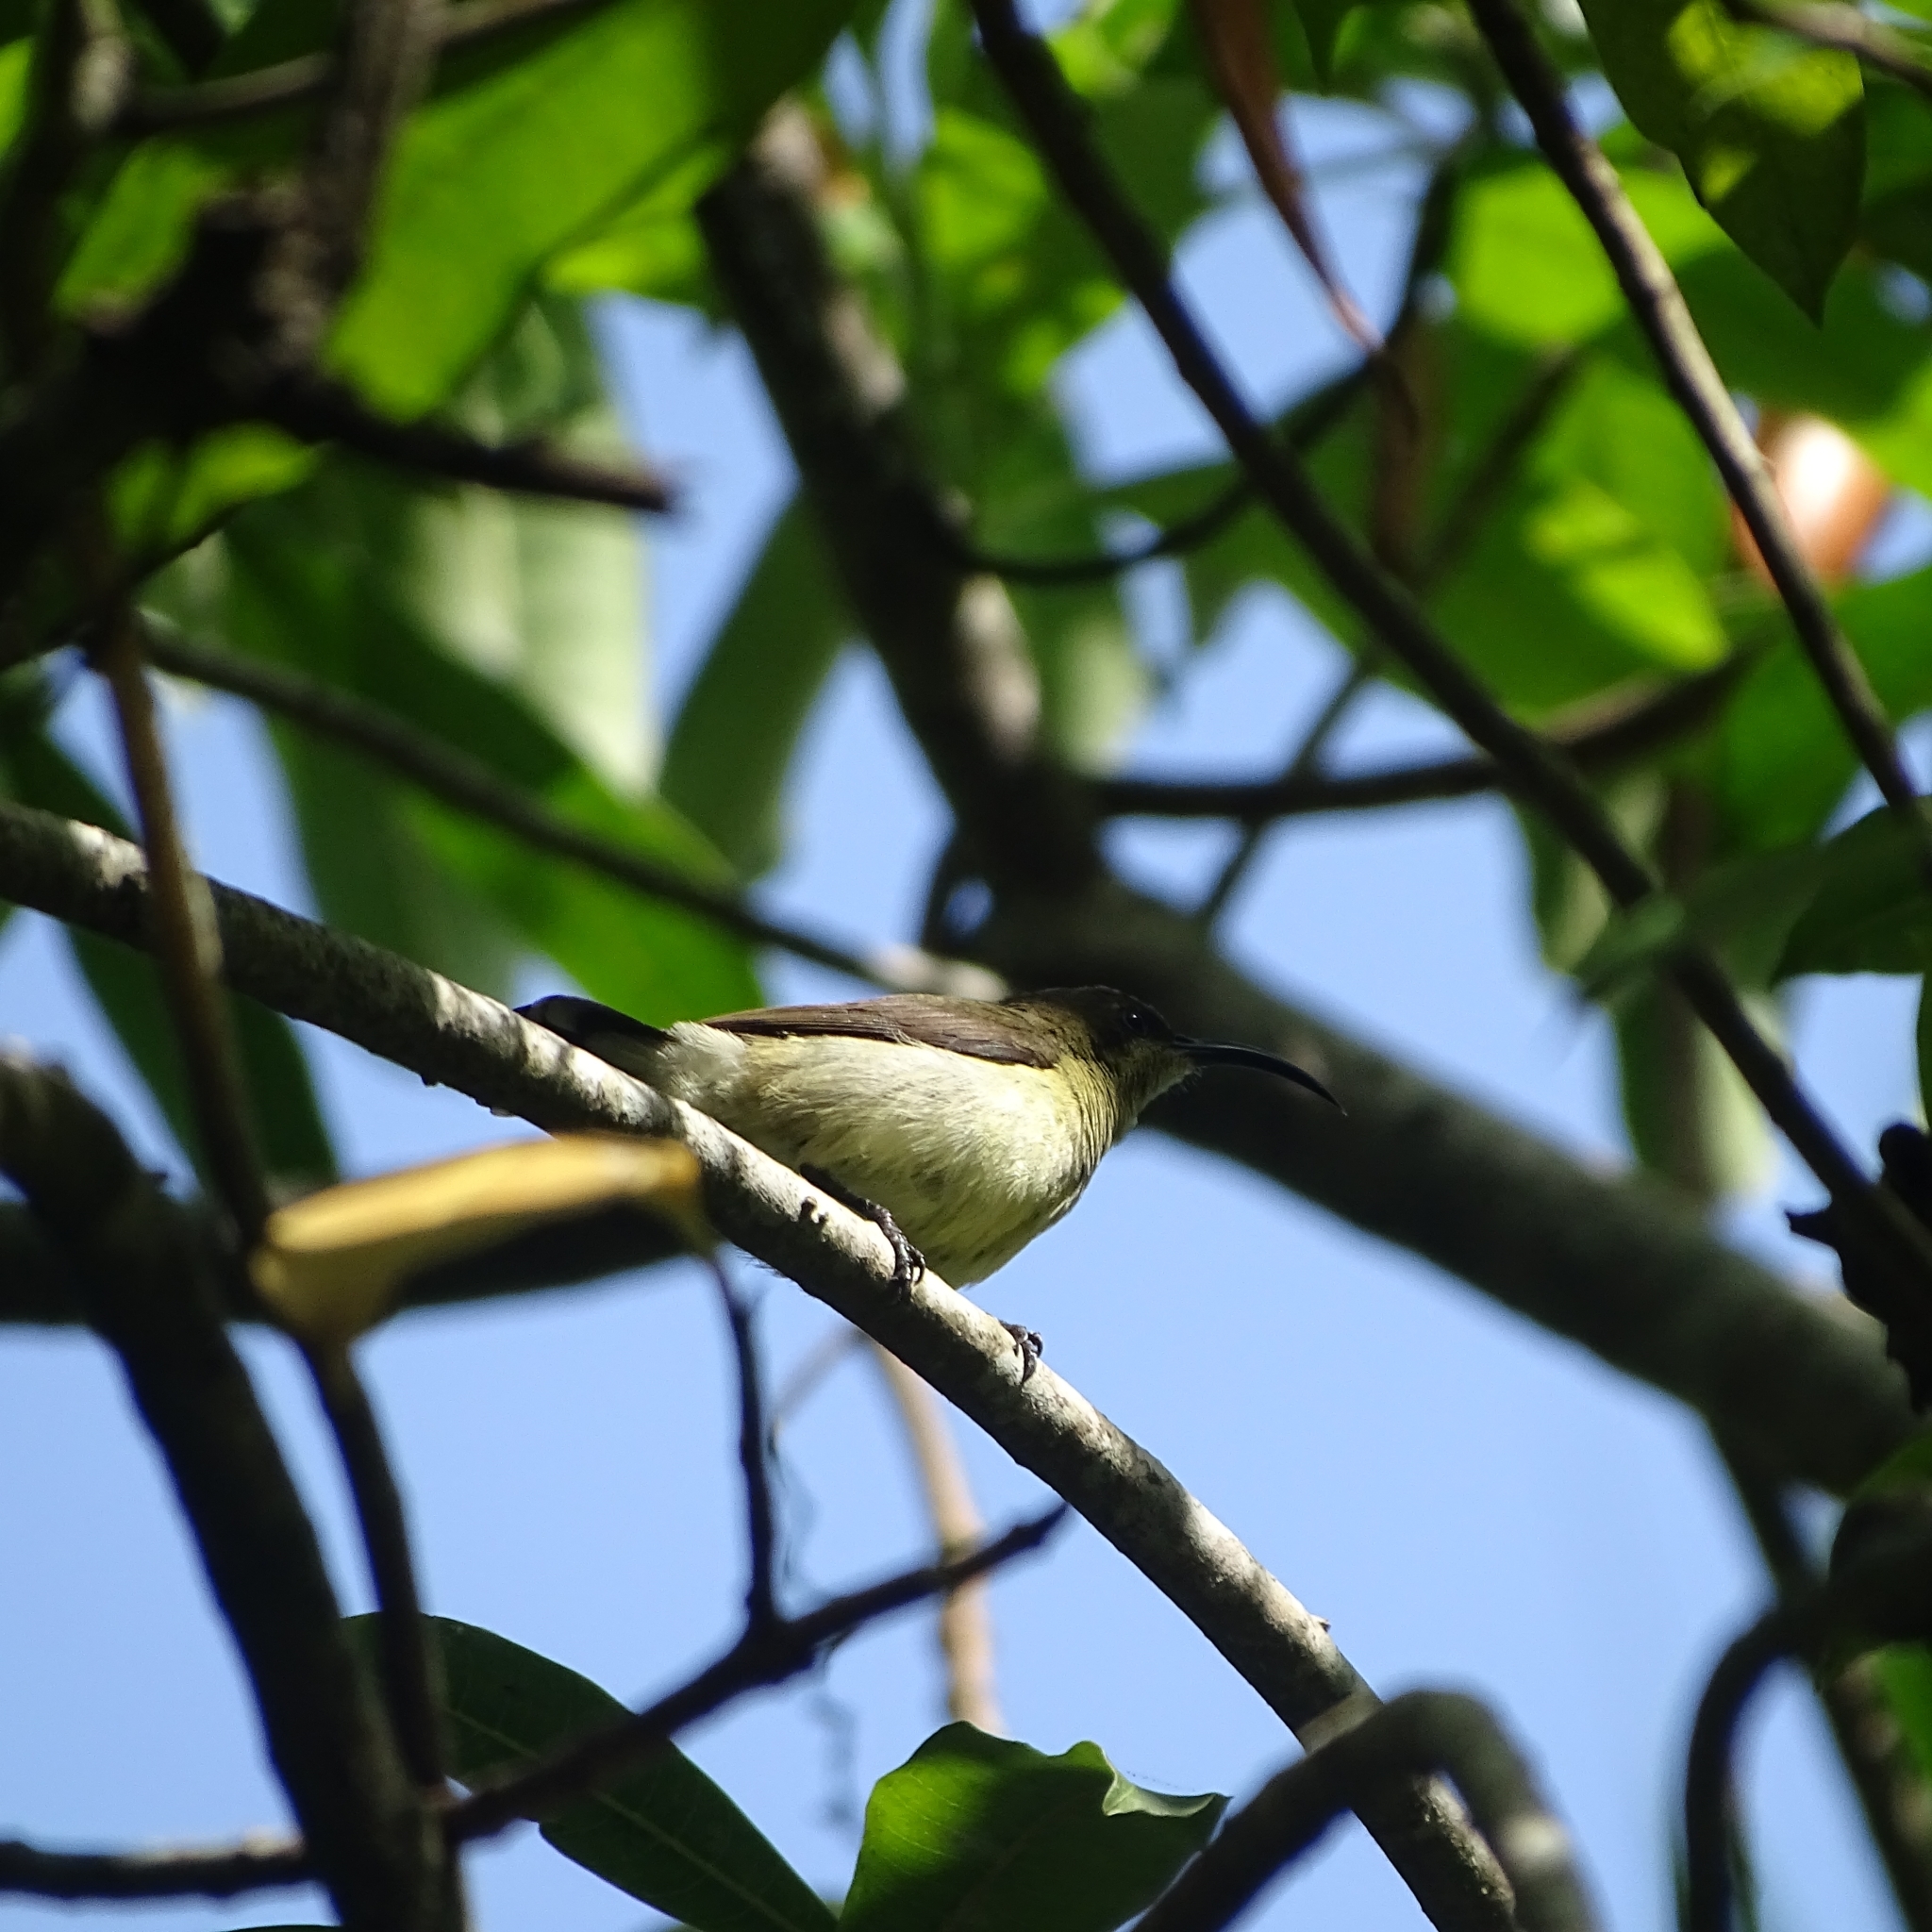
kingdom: Animalia
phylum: Chordata
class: Aves
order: Passeriformes
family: Nectariniidae
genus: Leptocoma
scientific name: Leptocoma zeylonica
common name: Purple-rumped sunbird
